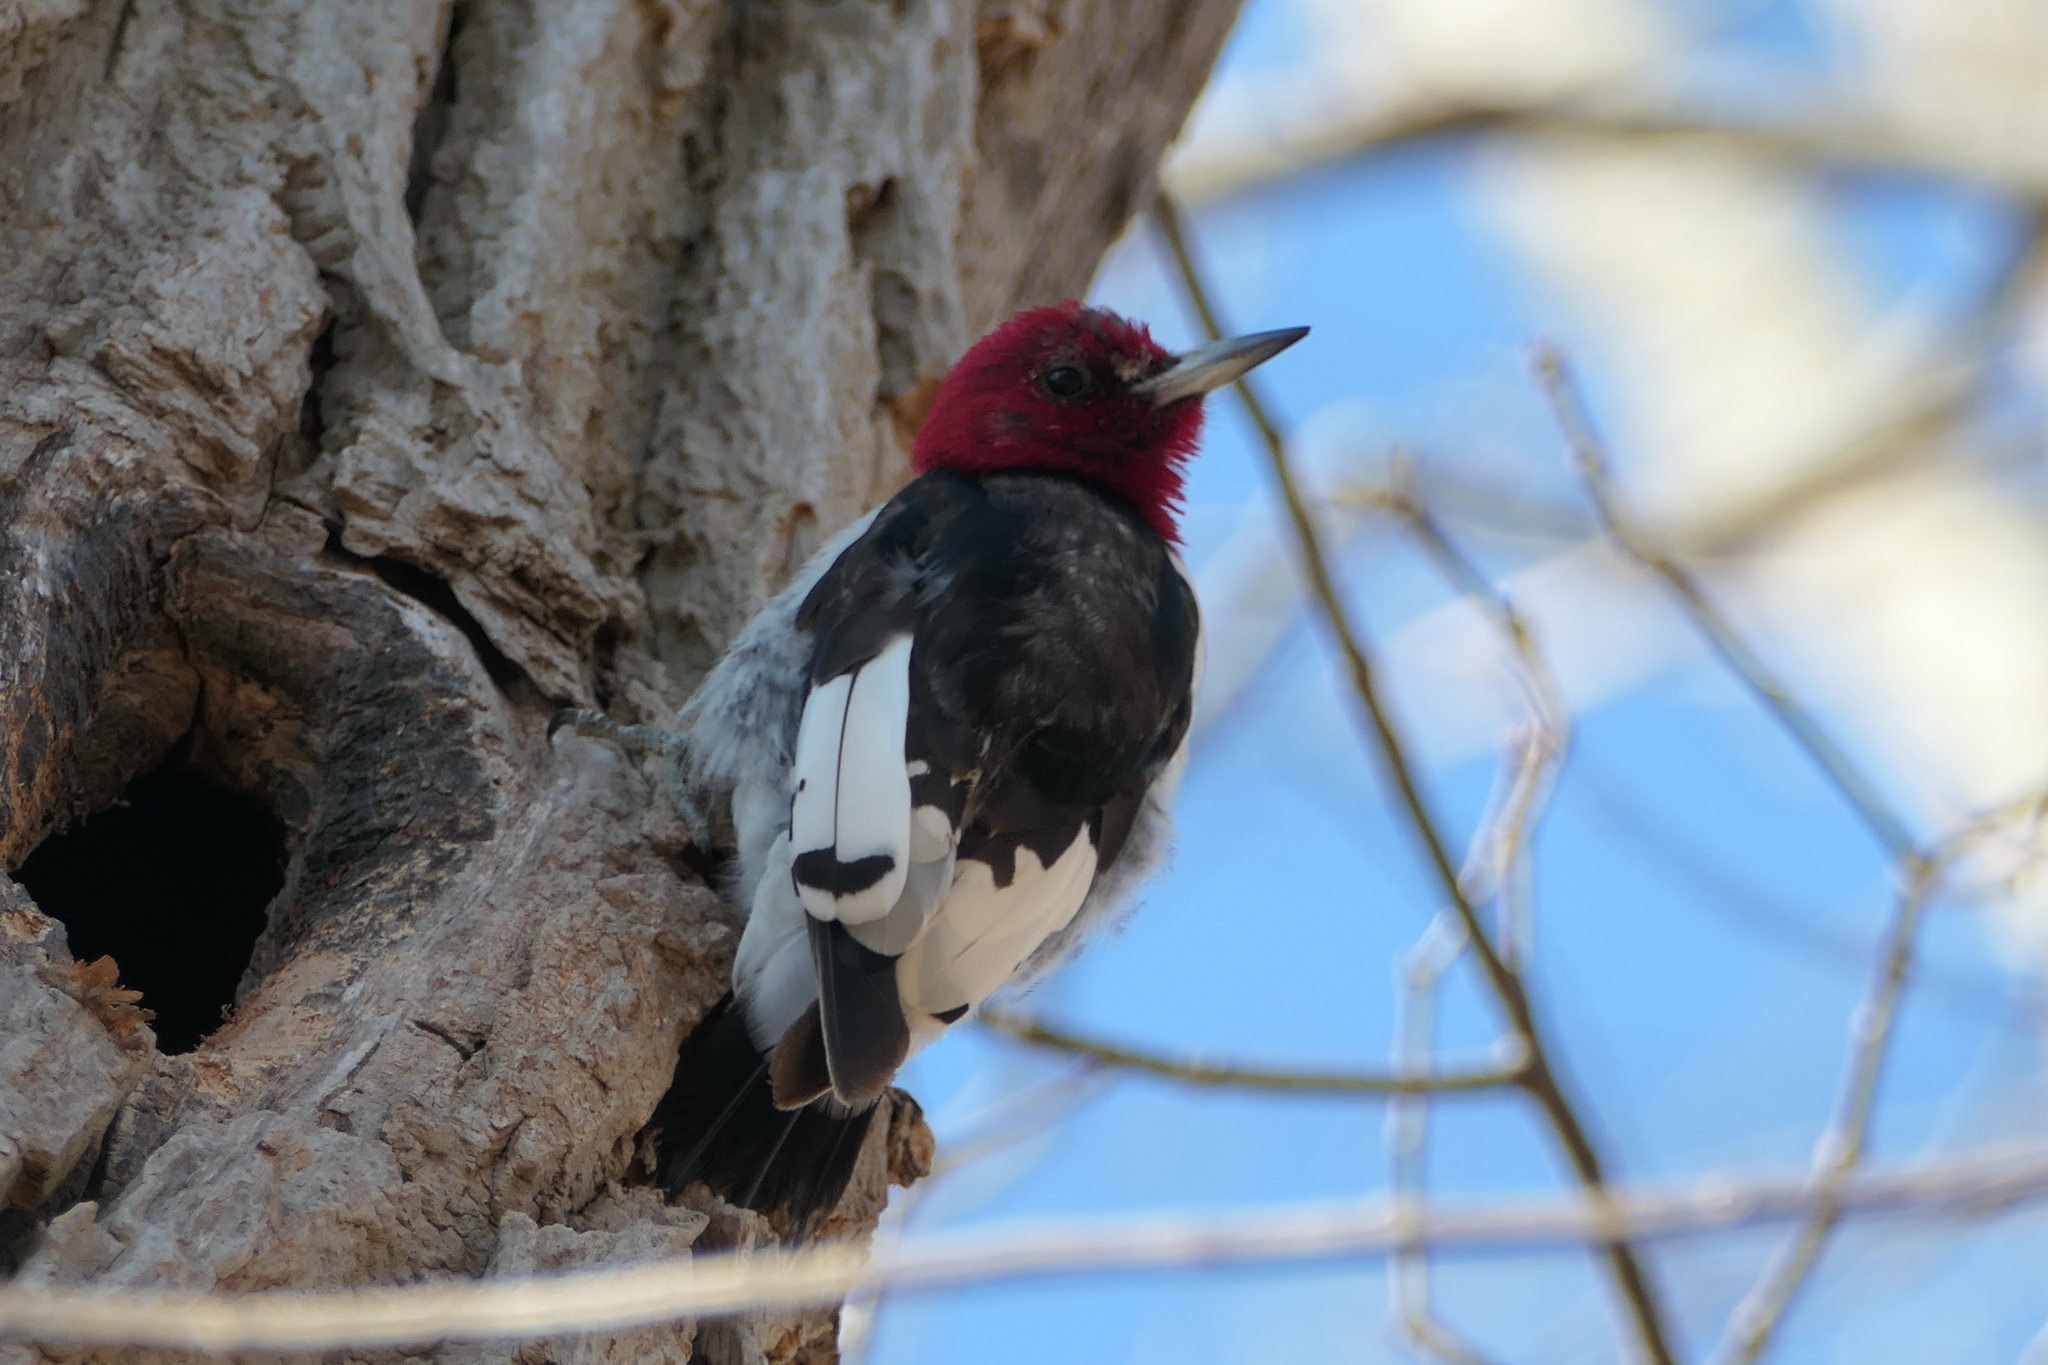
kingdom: Animalia
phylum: Chordata
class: Aves
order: Piciformes
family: Picidae
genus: Melanerpes
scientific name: Melanerpes erythrocephalus
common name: Red-headed woodpecker
